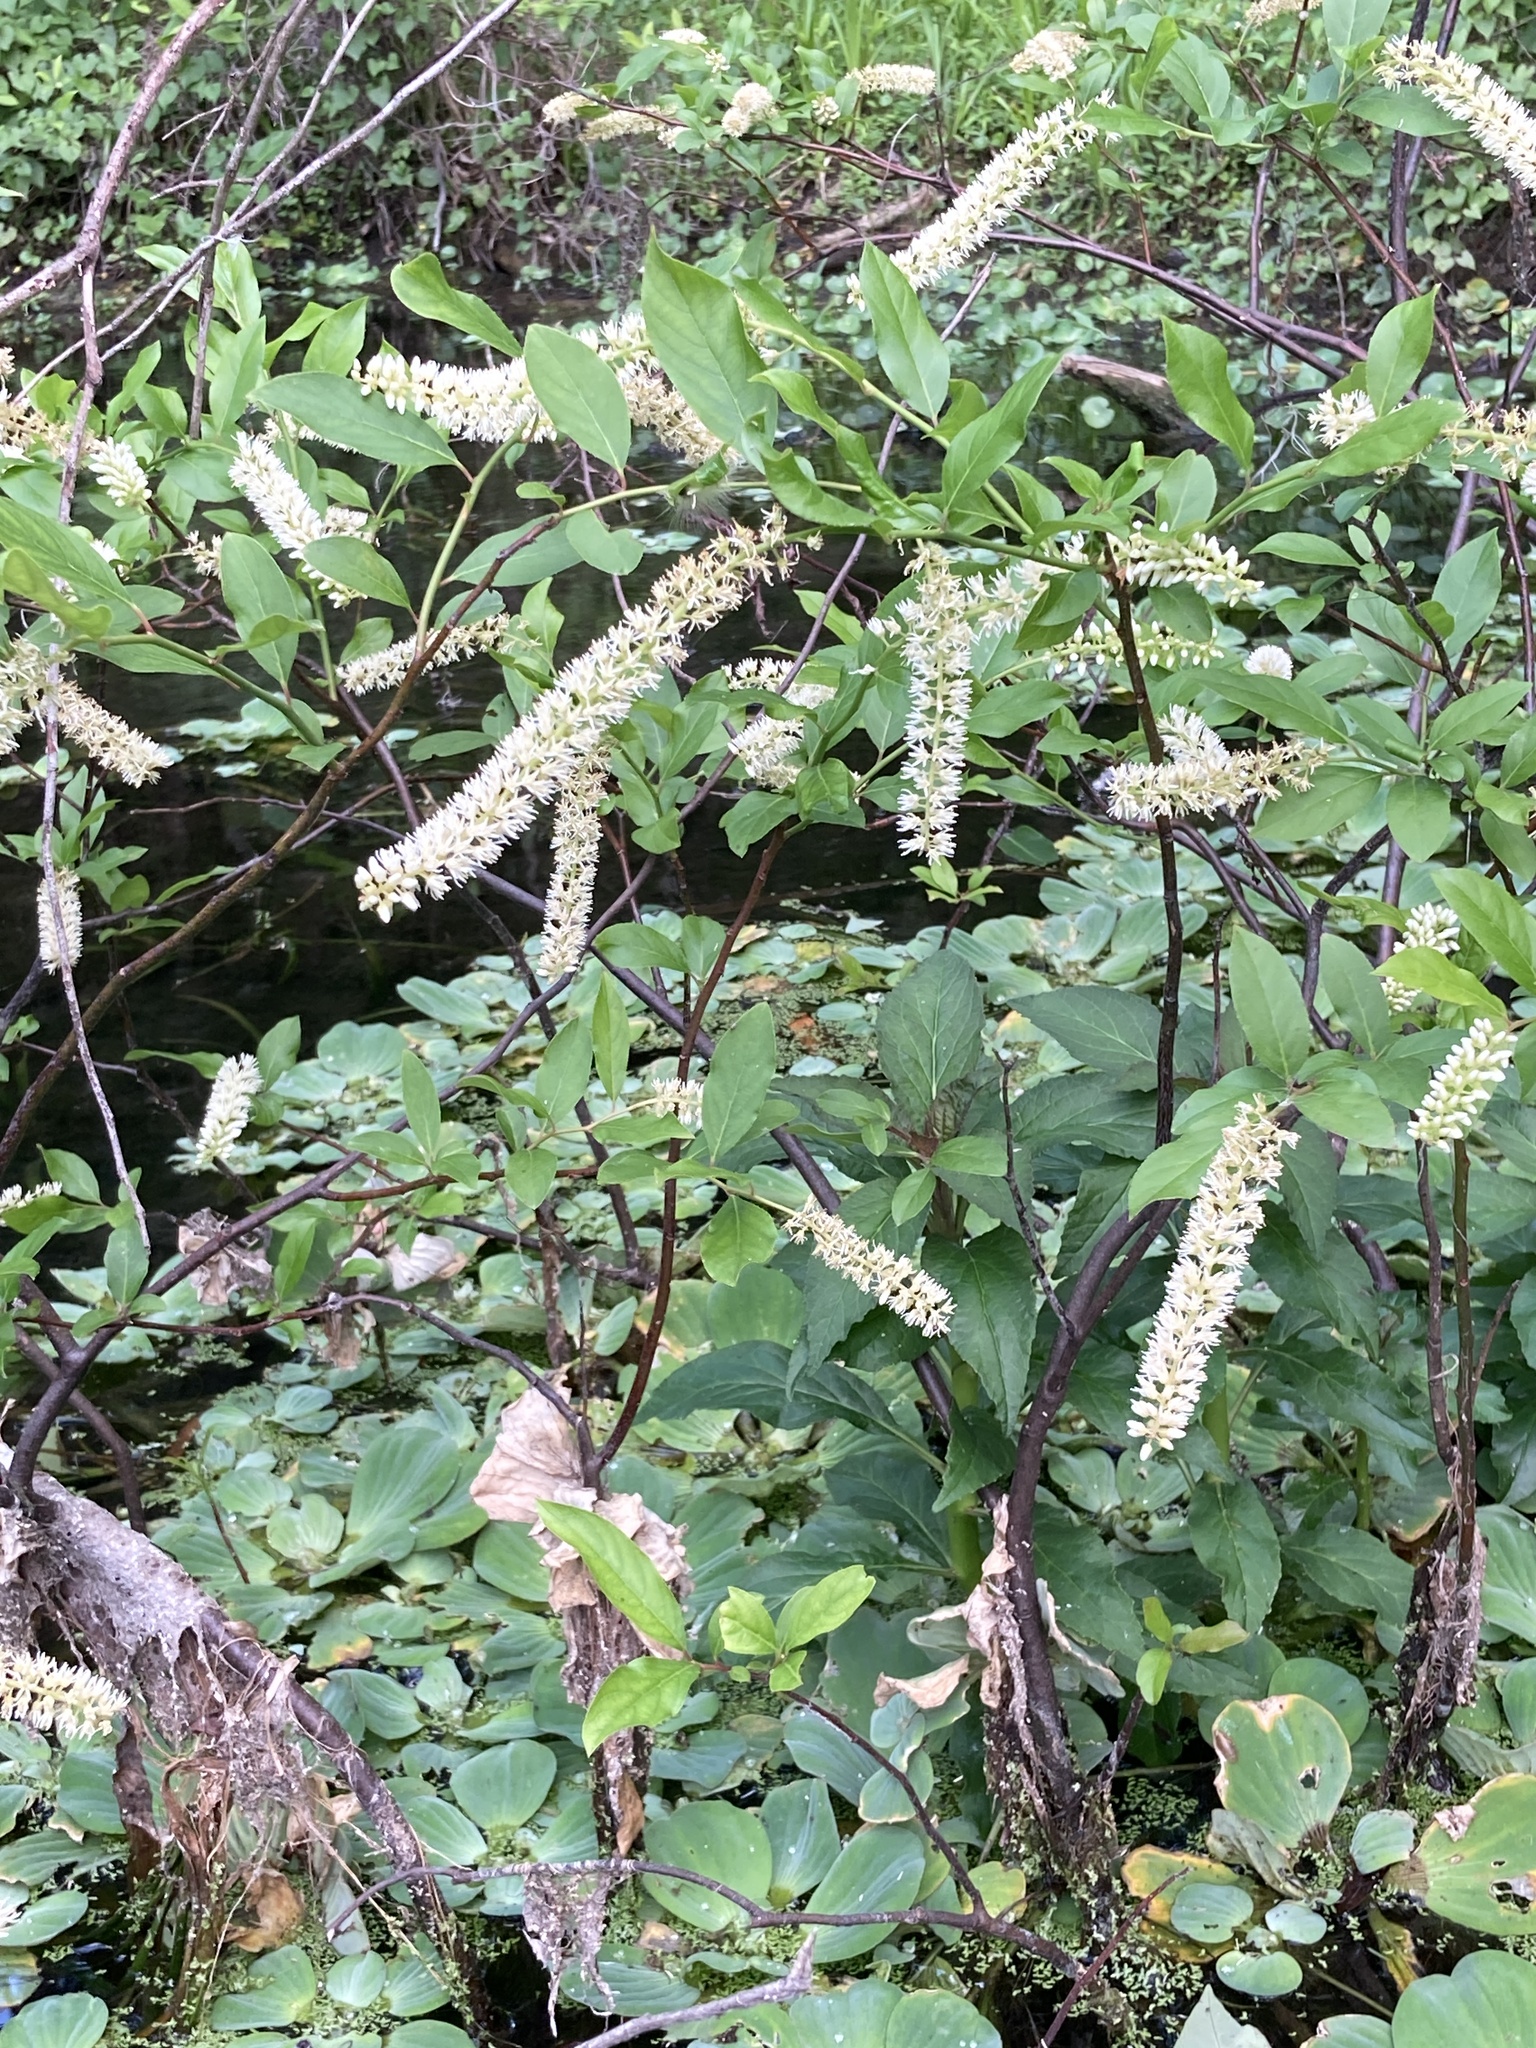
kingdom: Plantae
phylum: Tracheophyta
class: Magnoliopsida
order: Saxifragales
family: Iteaceae
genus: Itea
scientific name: Itea virginica
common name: Sweetspire
